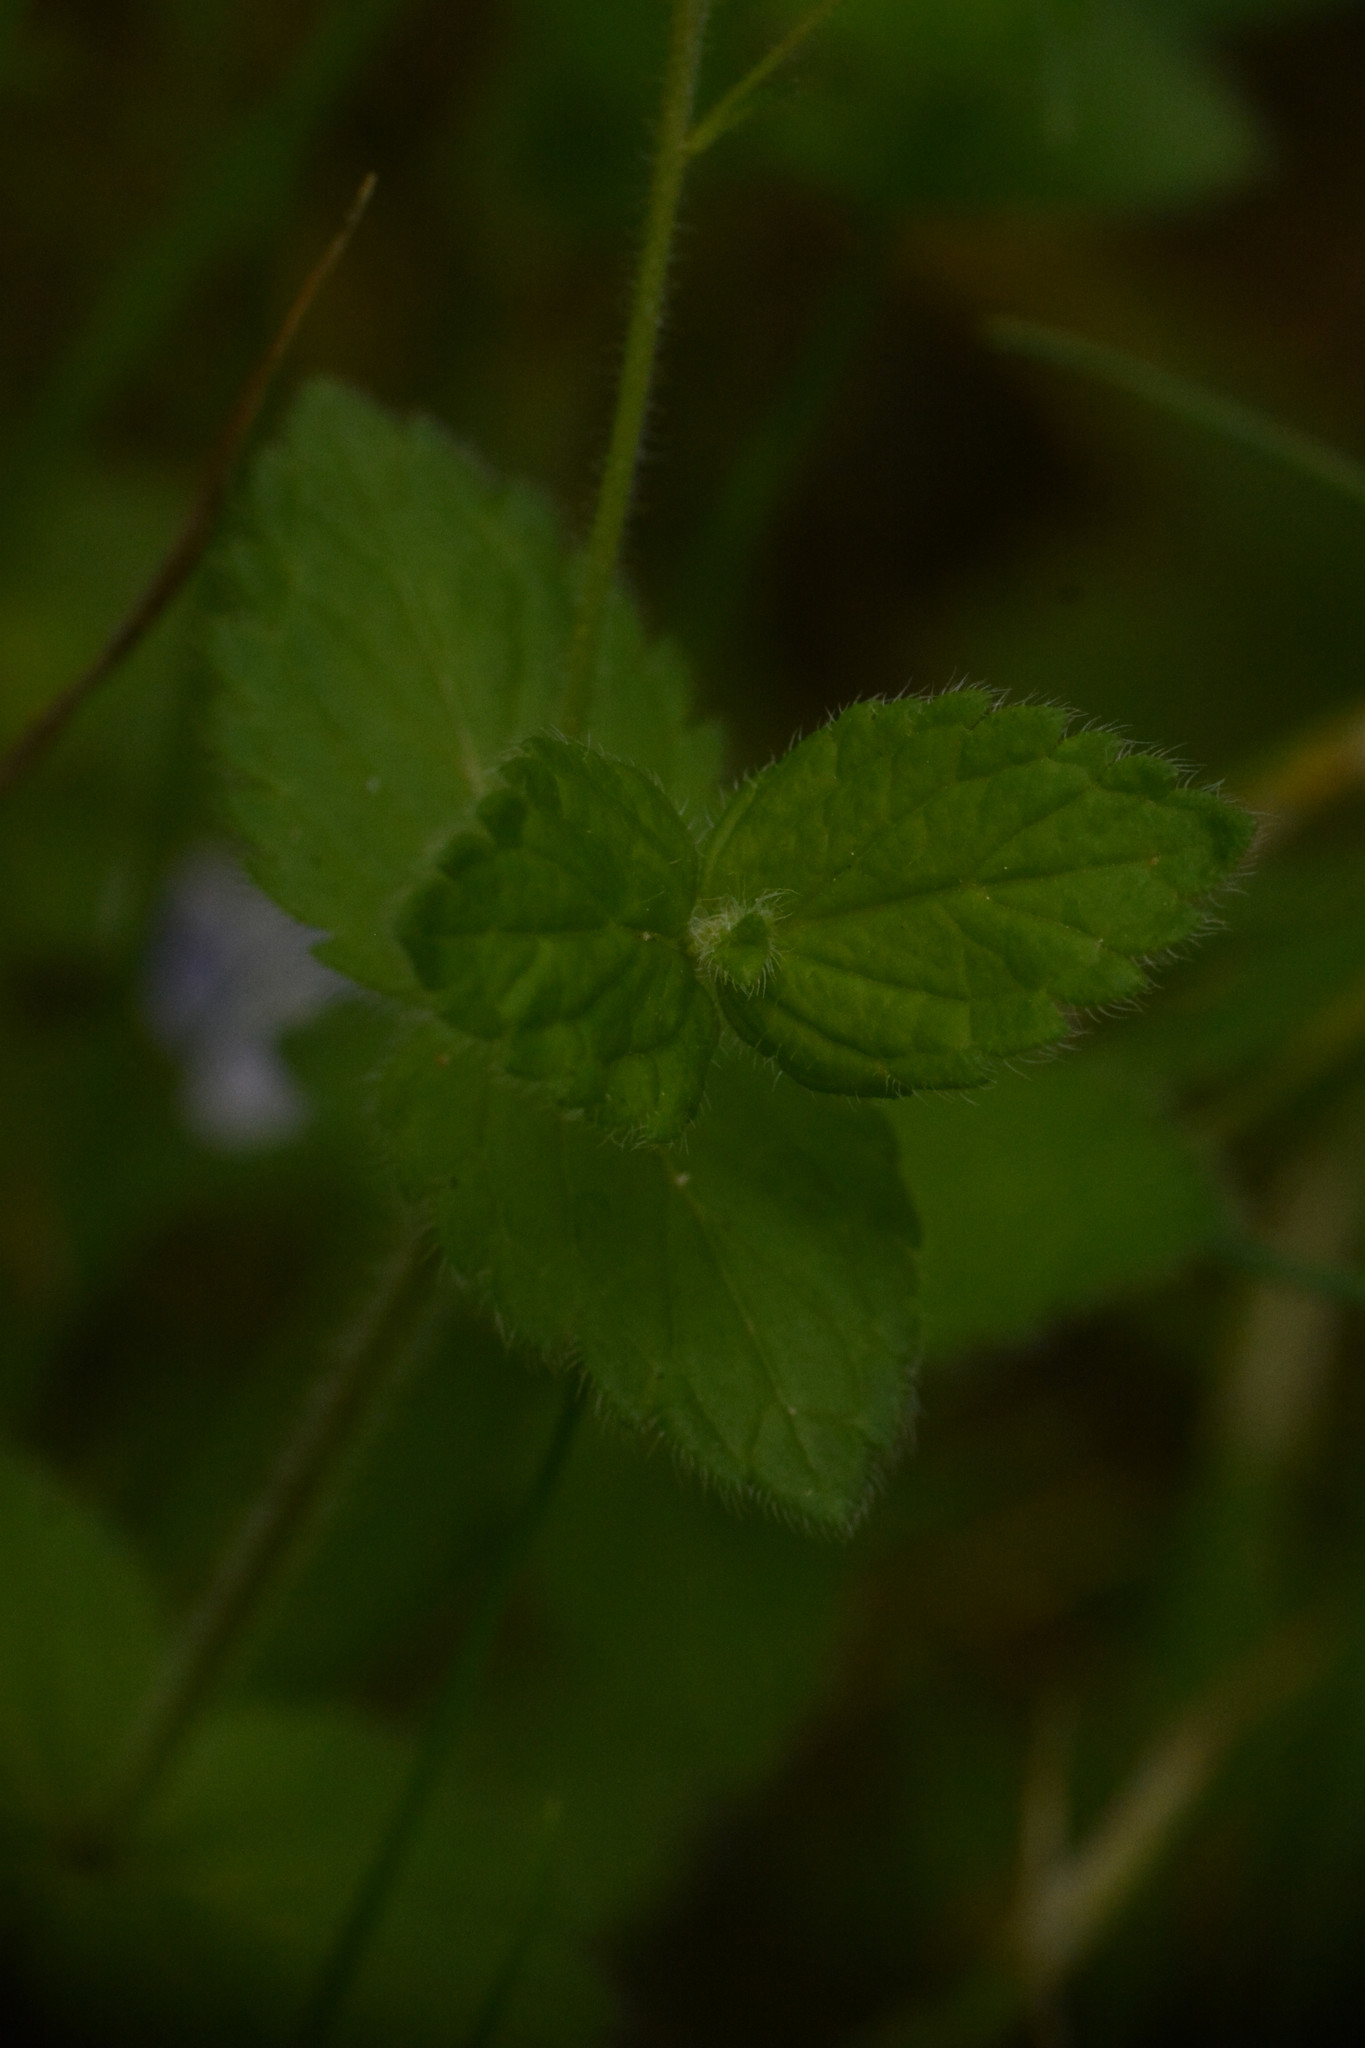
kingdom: Plantae
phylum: Tracheophyta
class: Magnoliopsida
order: Lamiales
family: Plantaginaceae
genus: Veronica
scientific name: Veronica chamaedrys
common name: Germander speedwell
